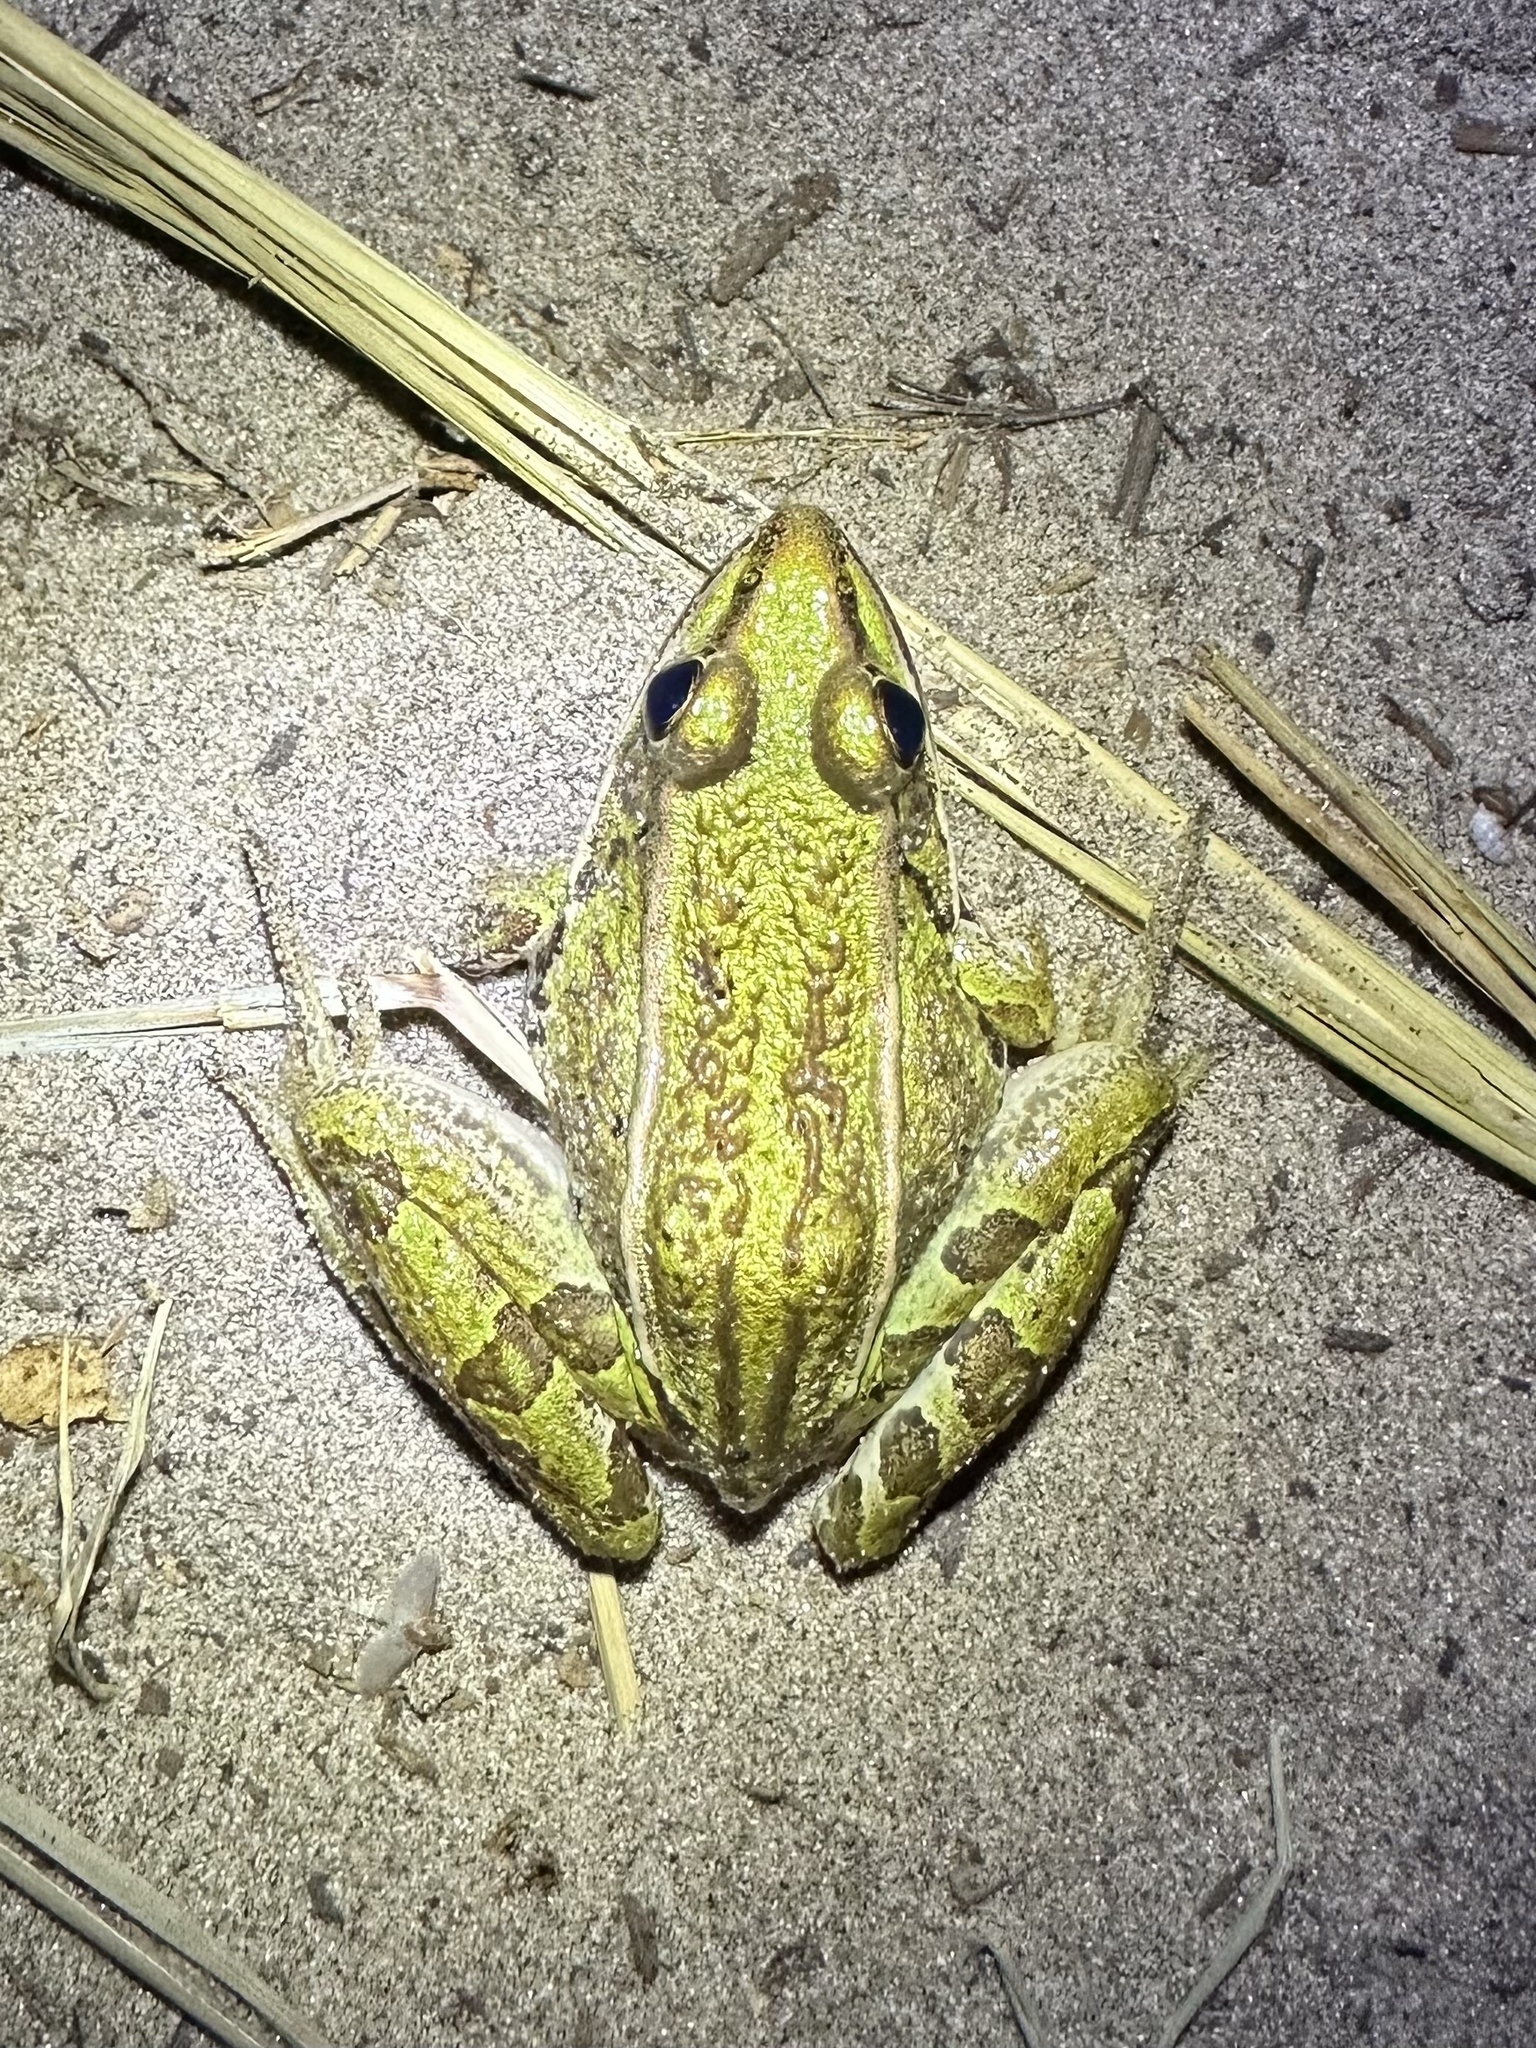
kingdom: Animalia
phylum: Chordata
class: Amphibia
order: Anura
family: Ranidae
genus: Lithobates
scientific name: Lithobates pipiens
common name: Northern leopard frog
